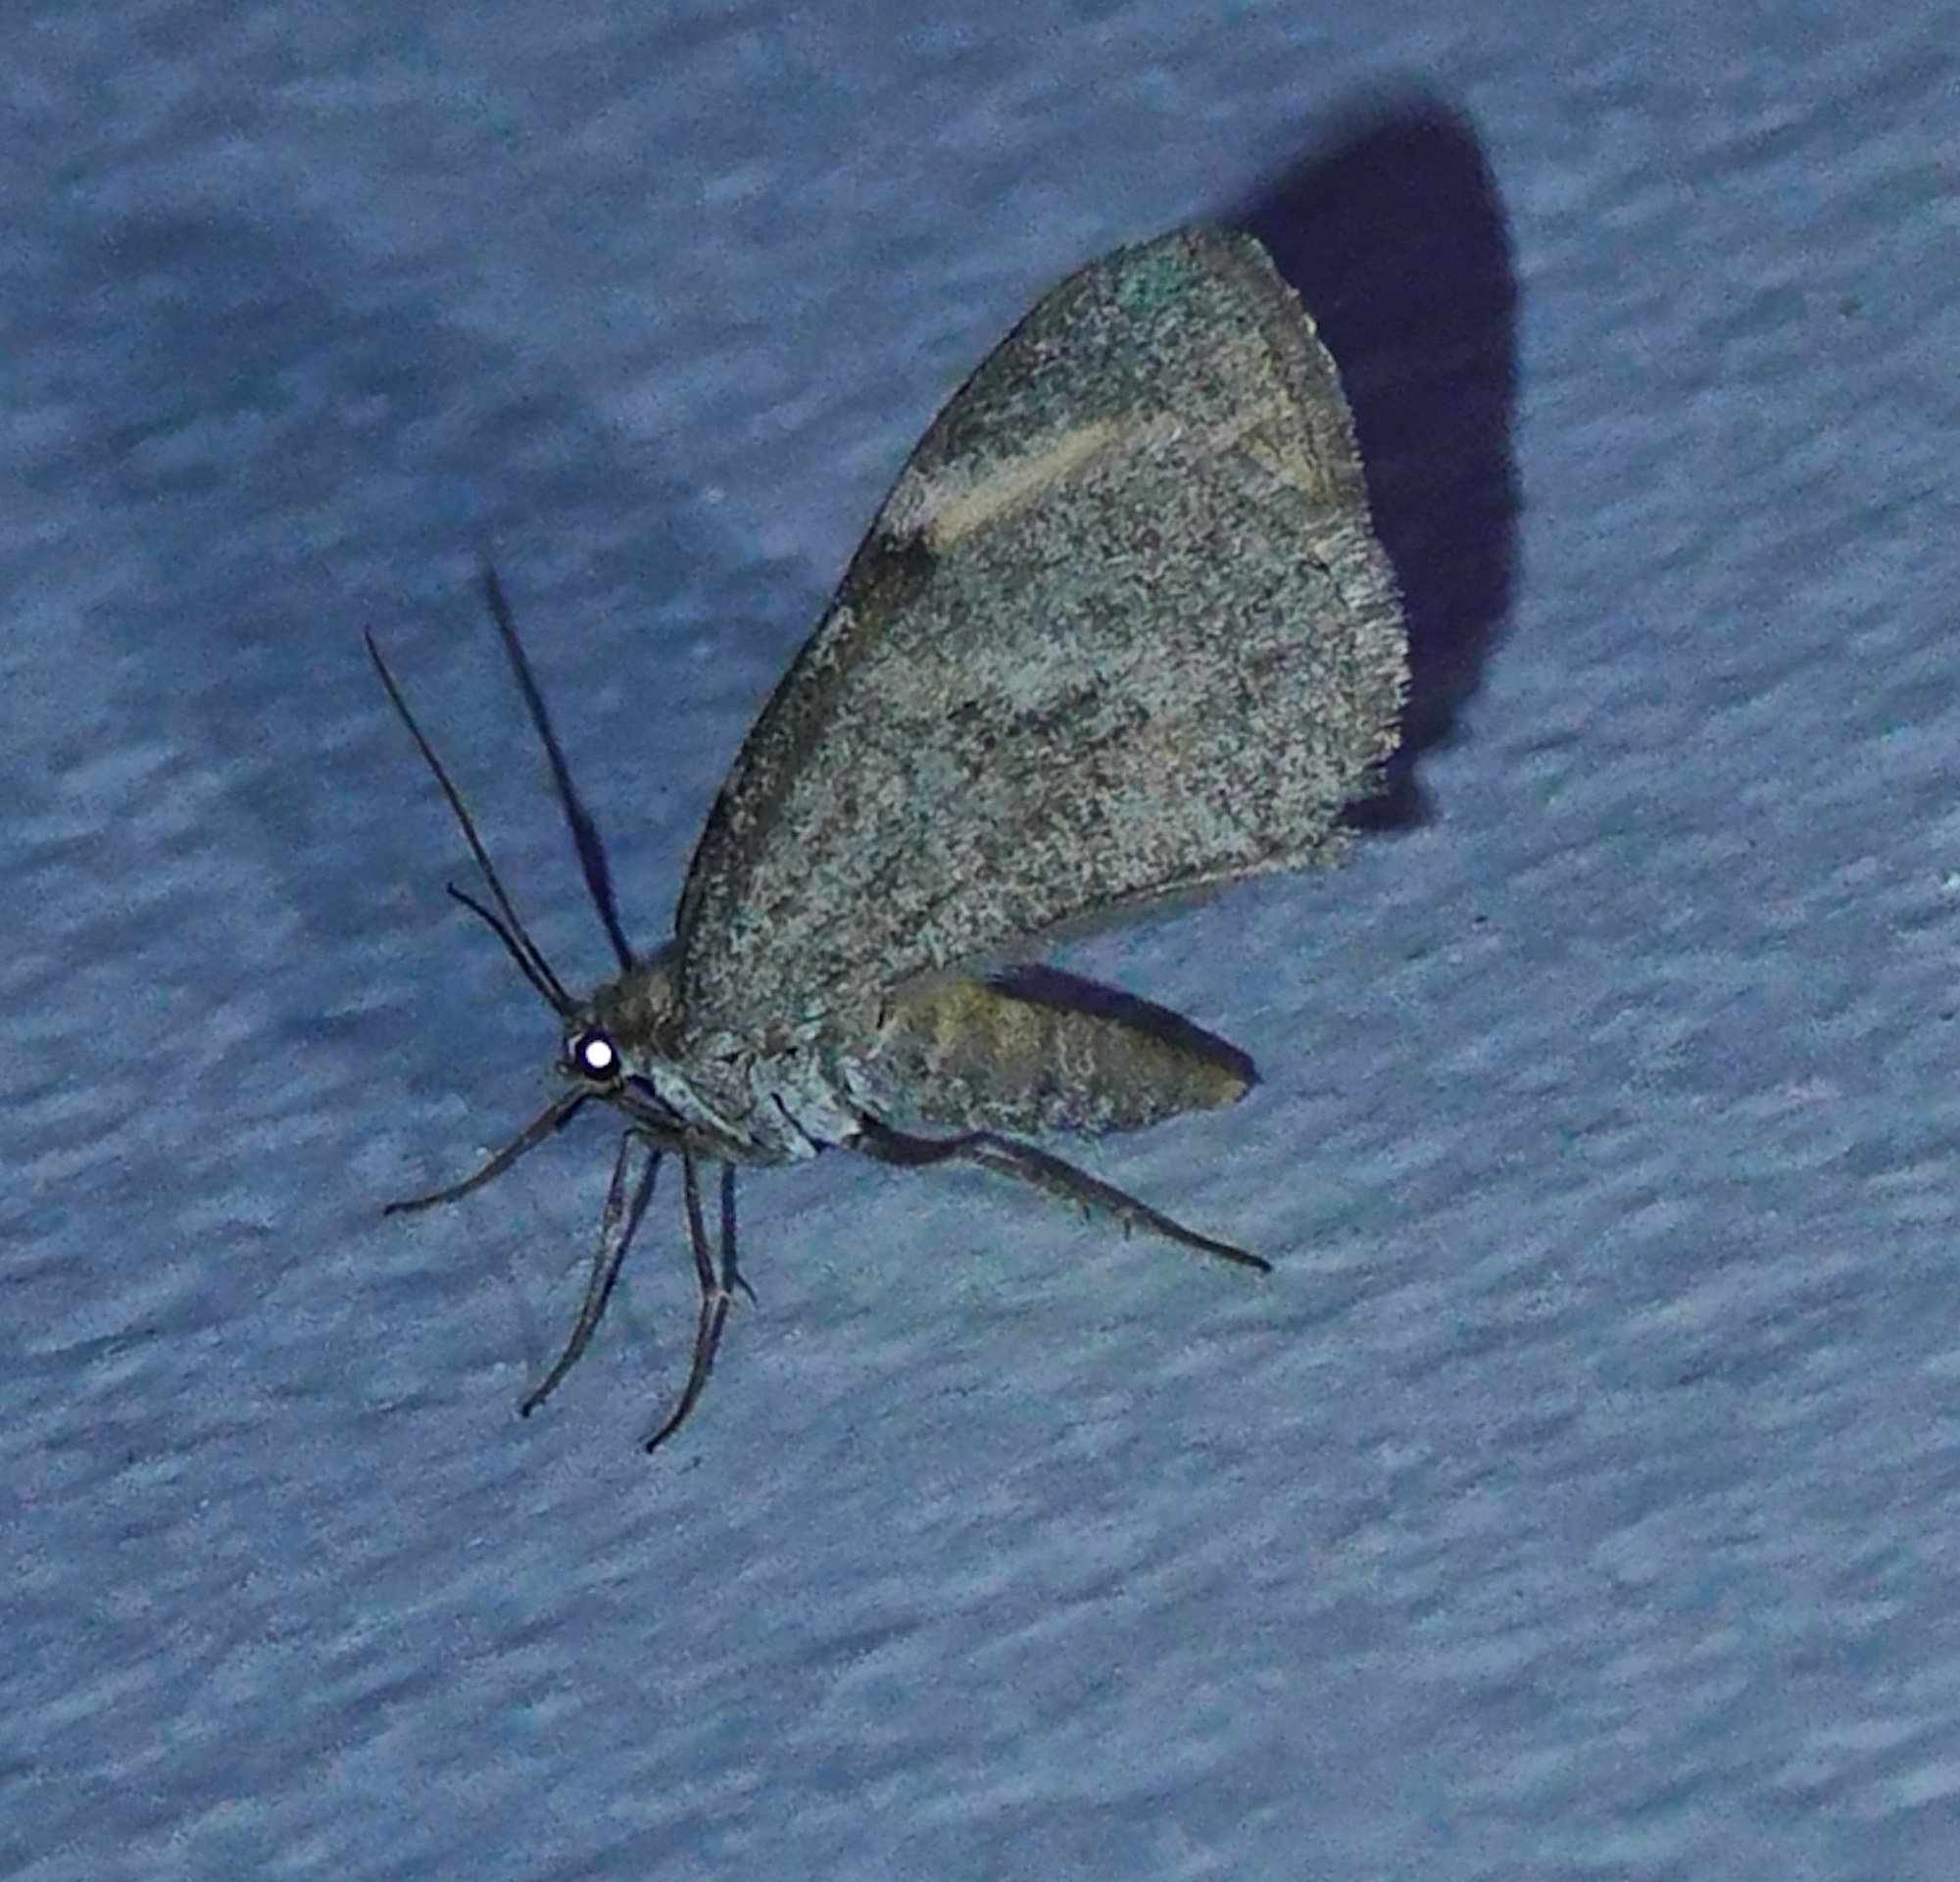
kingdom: Animalia
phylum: Arthropoda
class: Insecta
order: Lepidoptera
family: Geometridae
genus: Stamnodes
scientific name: Stamnodes seiferti
